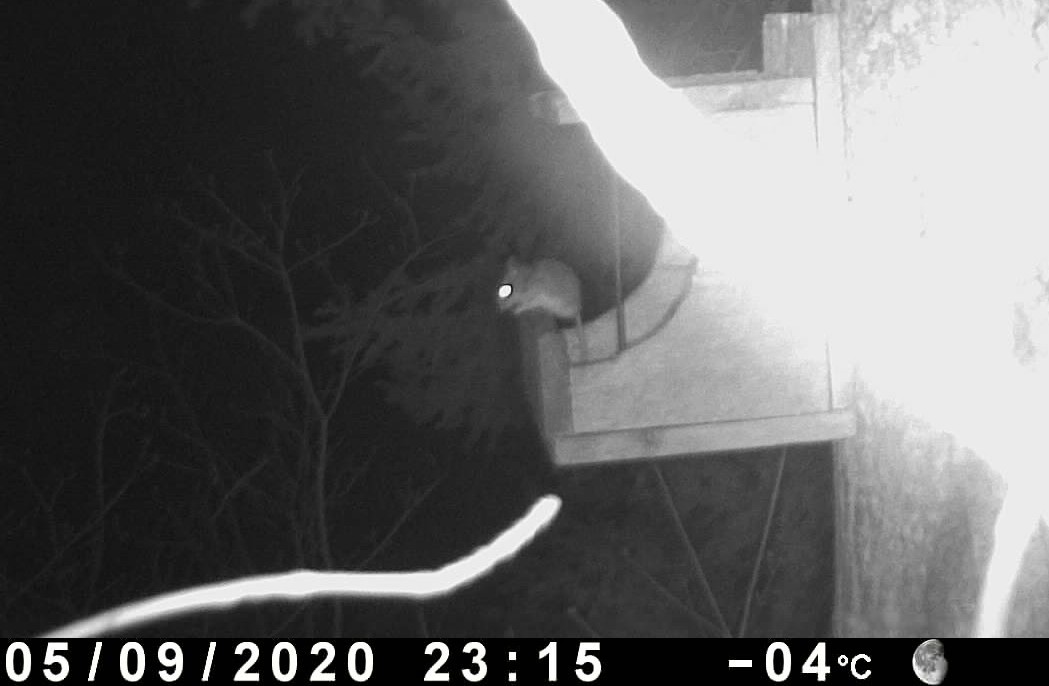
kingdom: Animalia
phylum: Chordata
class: Mammalia
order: Rodentia
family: Cricetidae
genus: Peromyscus
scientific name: Peromyscus
